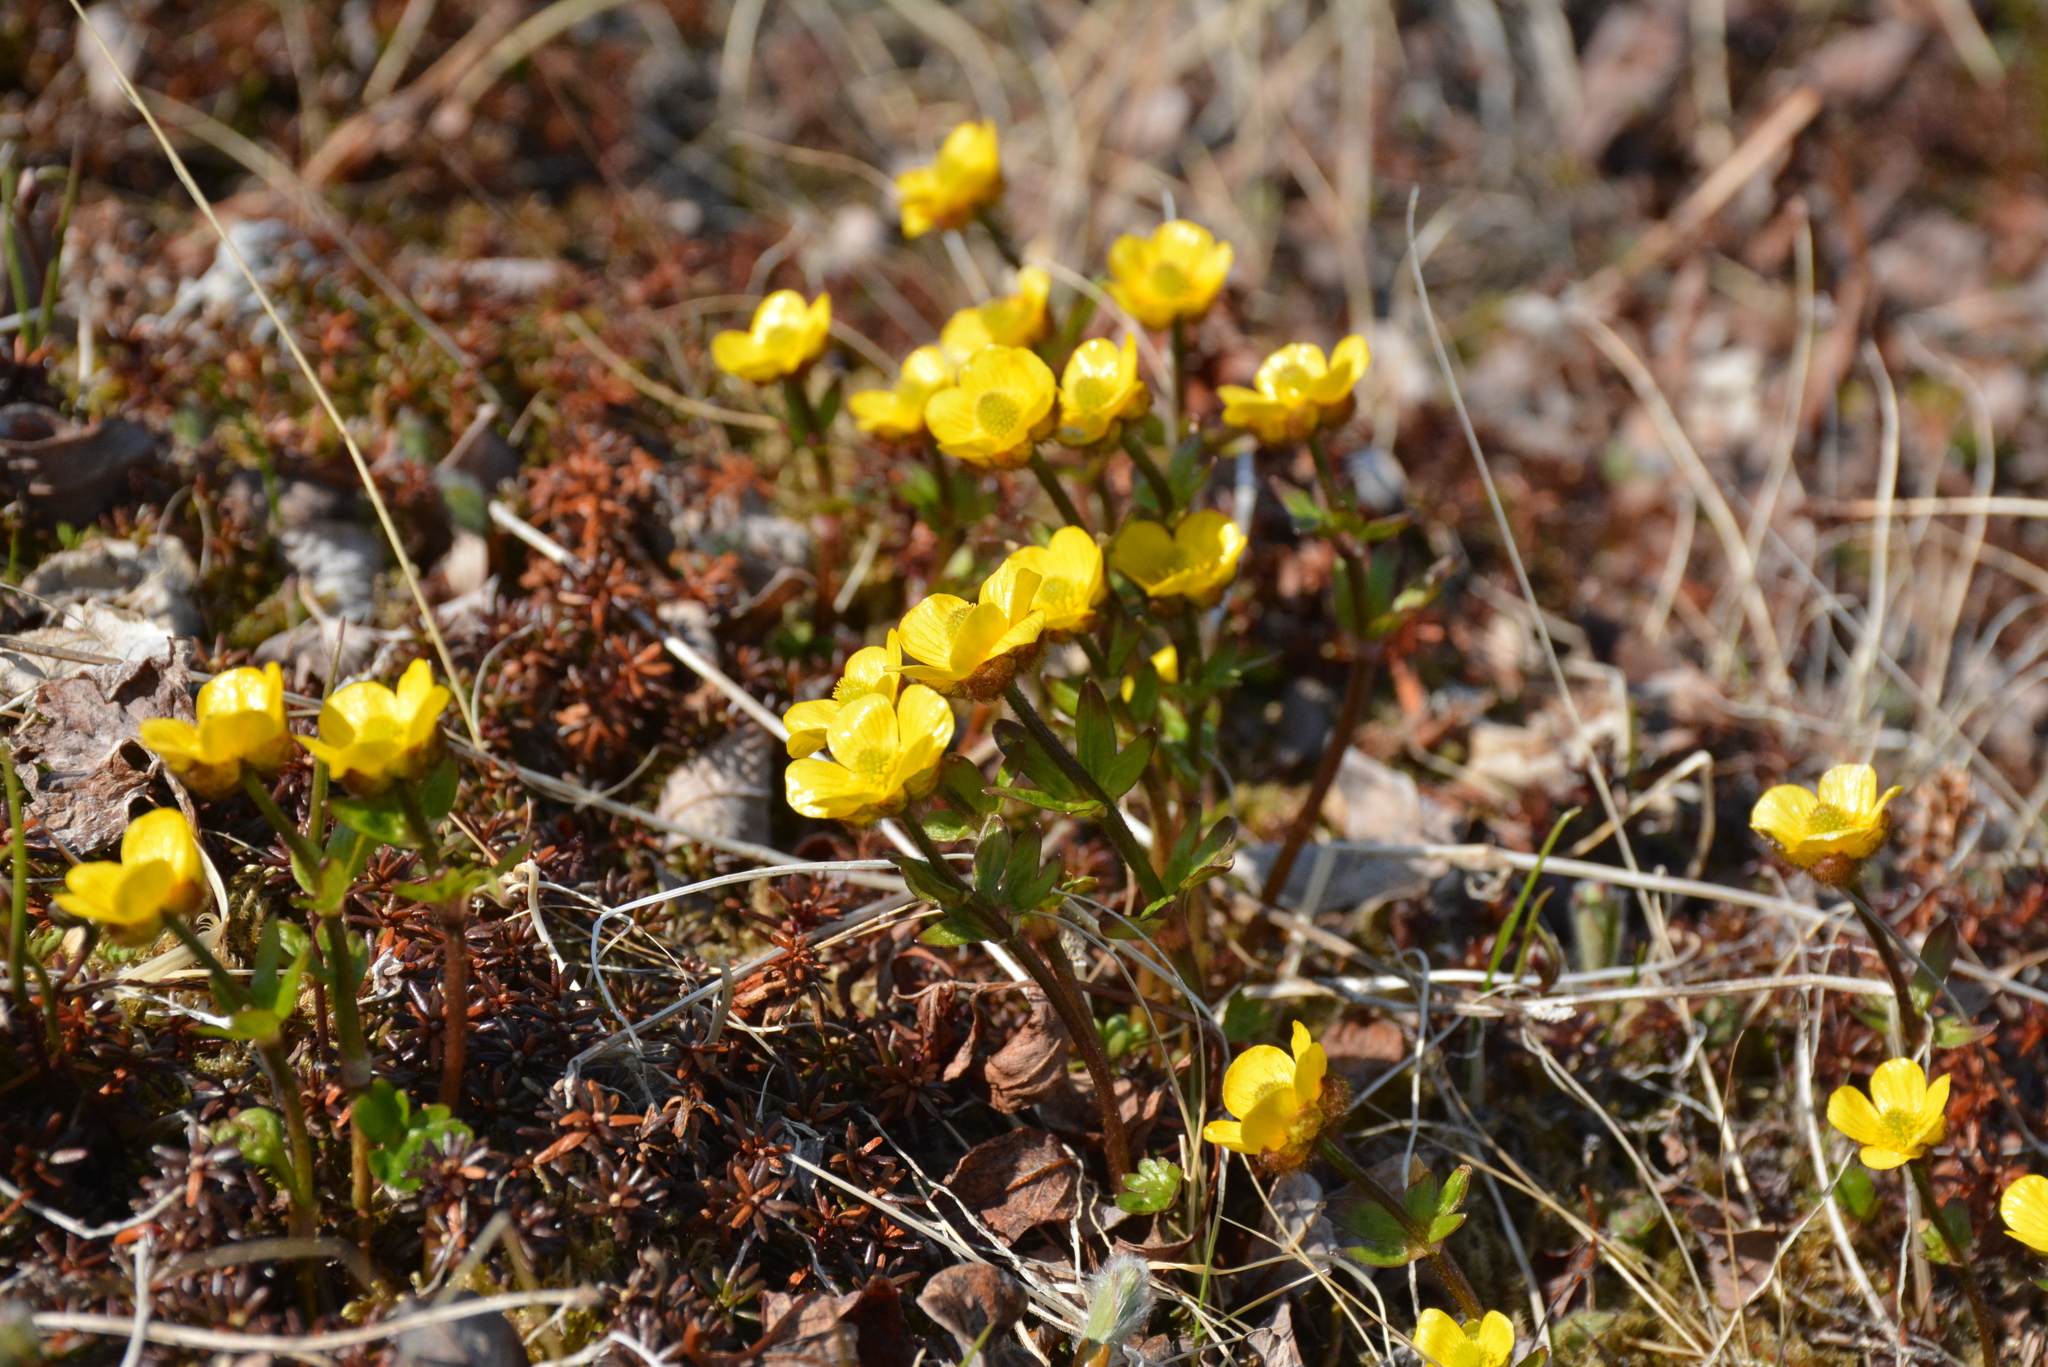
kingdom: Plantae
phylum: Tracheophyta
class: Magnoliopsida
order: Ranunculales
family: Ranunculaceae
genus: Ranunculus
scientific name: Ranunculus nivalis
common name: Snow buttercup
